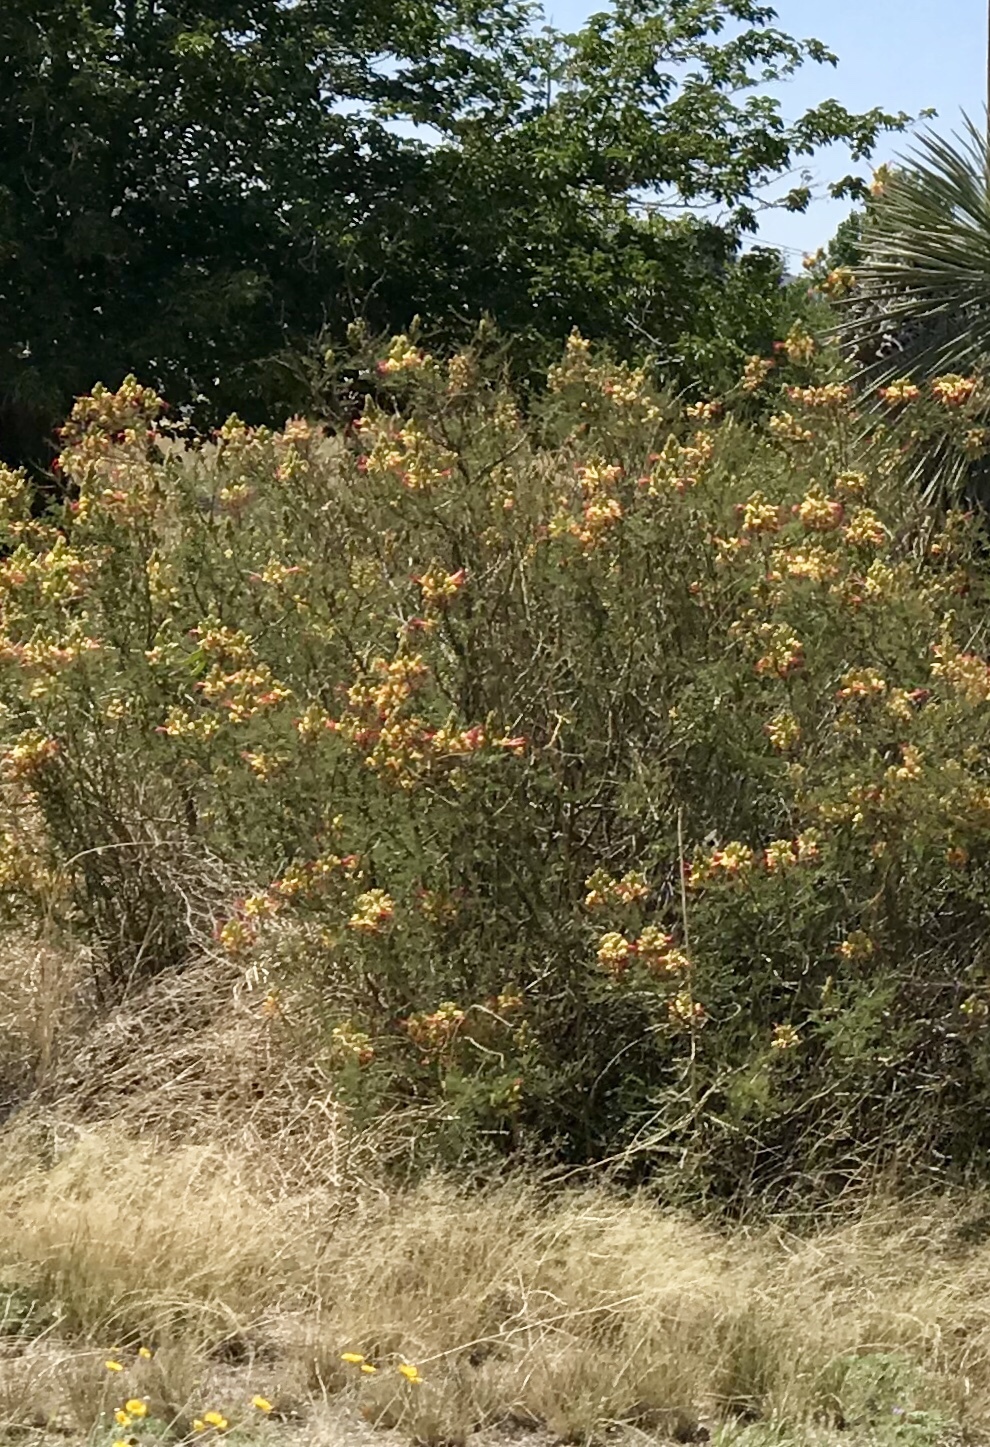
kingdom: Plantae
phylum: Tracheophyta
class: Magnoliopsida
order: Fabales
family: Fabaceae
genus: Erythrostemon
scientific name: Erythrostemon gilliesii
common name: Bird-of-paradise shrub
